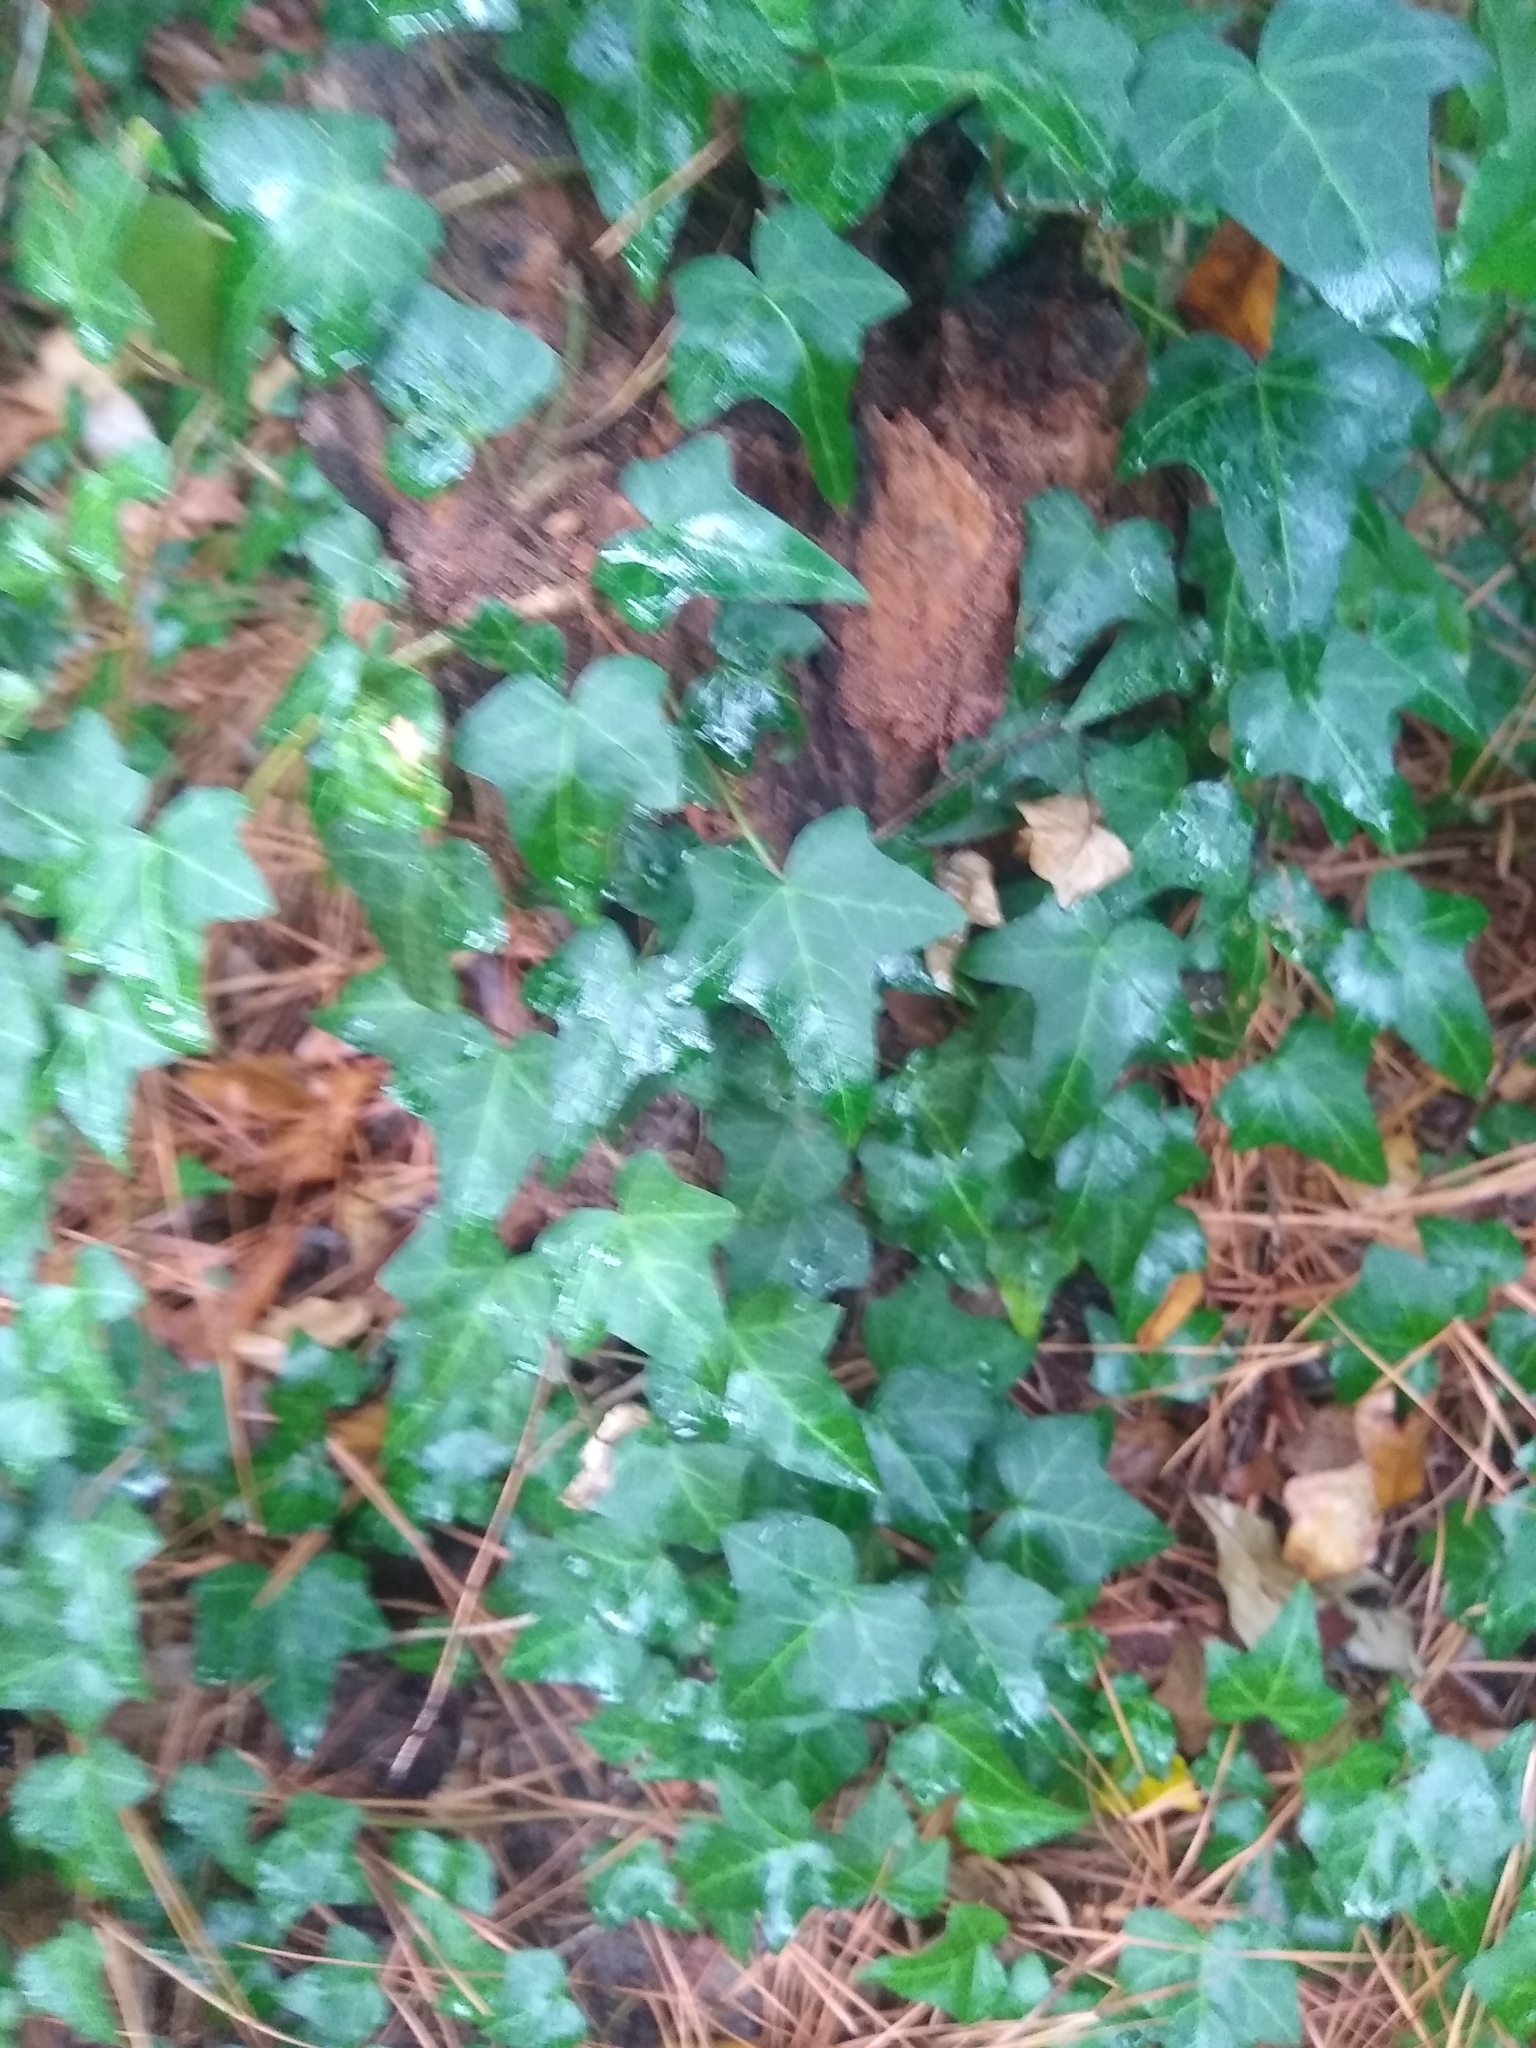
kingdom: Plantae
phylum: Tracheophyta
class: Magnoliopsida
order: Apiales
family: Araliaceae
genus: Hedera
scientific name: Hedera helix
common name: Ivy
